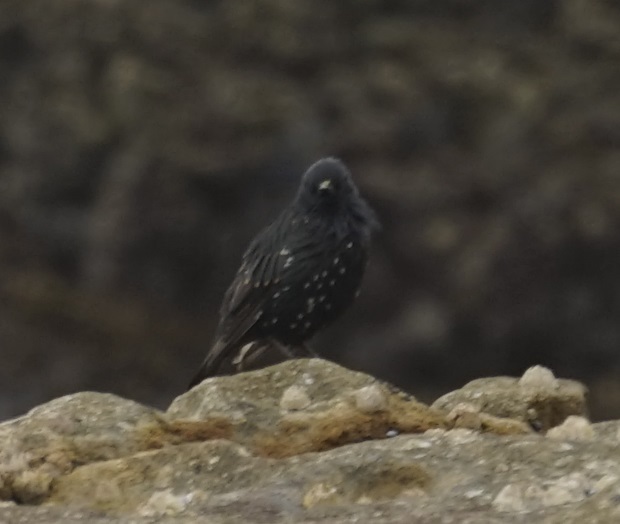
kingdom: Animalia
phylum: Chordata
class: Aves
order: Passeriformes
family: Sturnidae
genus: Sturnus
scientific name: Sturnus vulgaris
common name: Common starling
